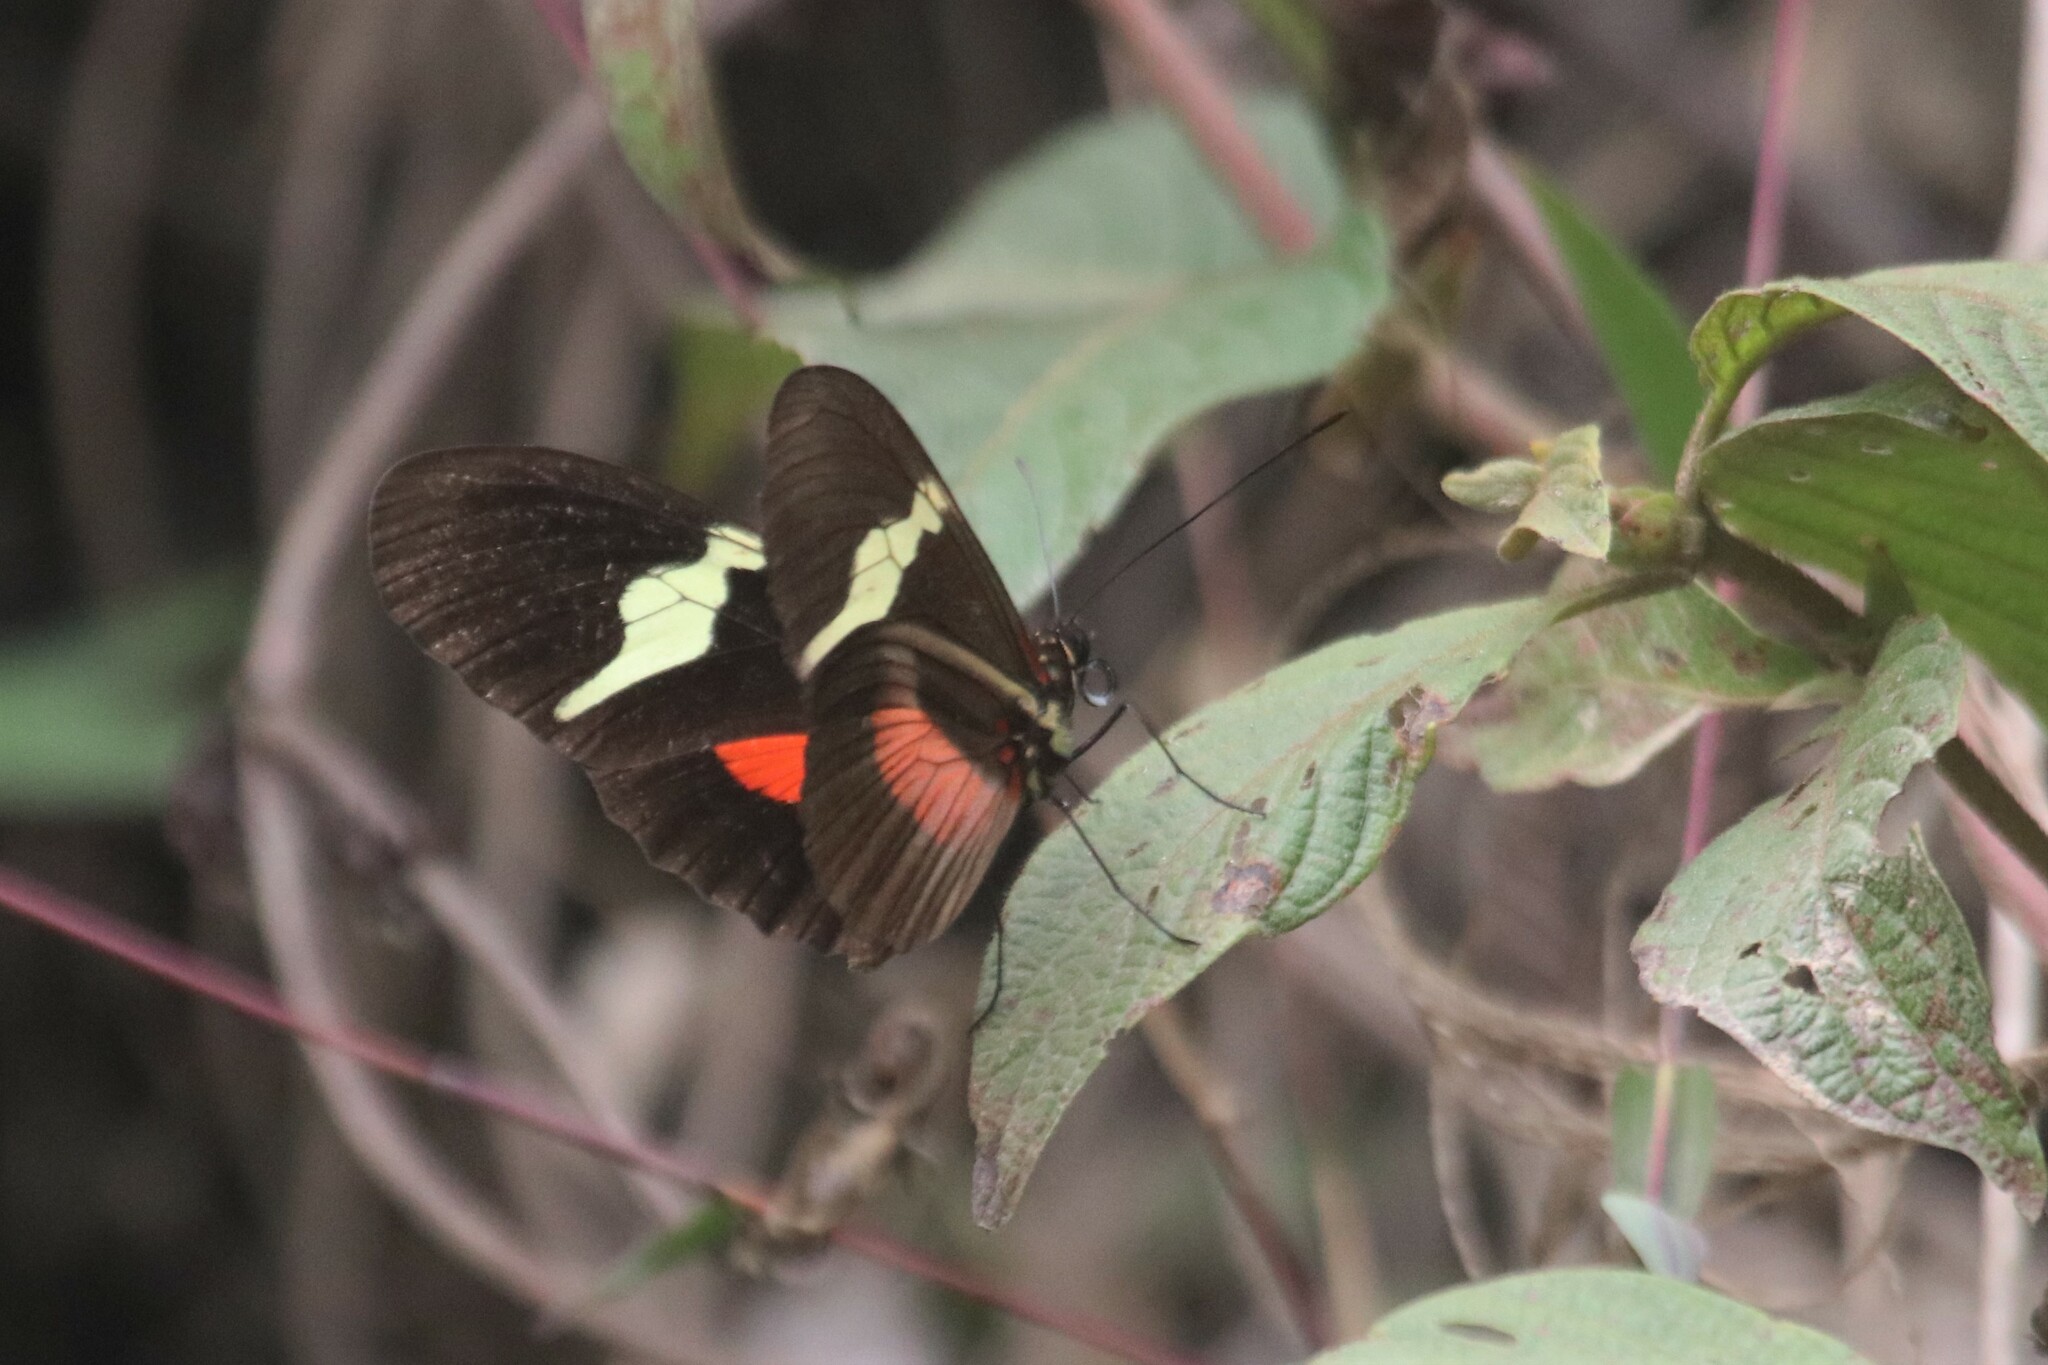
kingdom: Animalia
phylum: Arthropoda
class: Insecta
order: Lepidoptera
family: Nymphalidae
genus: Heliconius
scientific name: Heliconius clysonymus
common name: Clysonymus longwing
